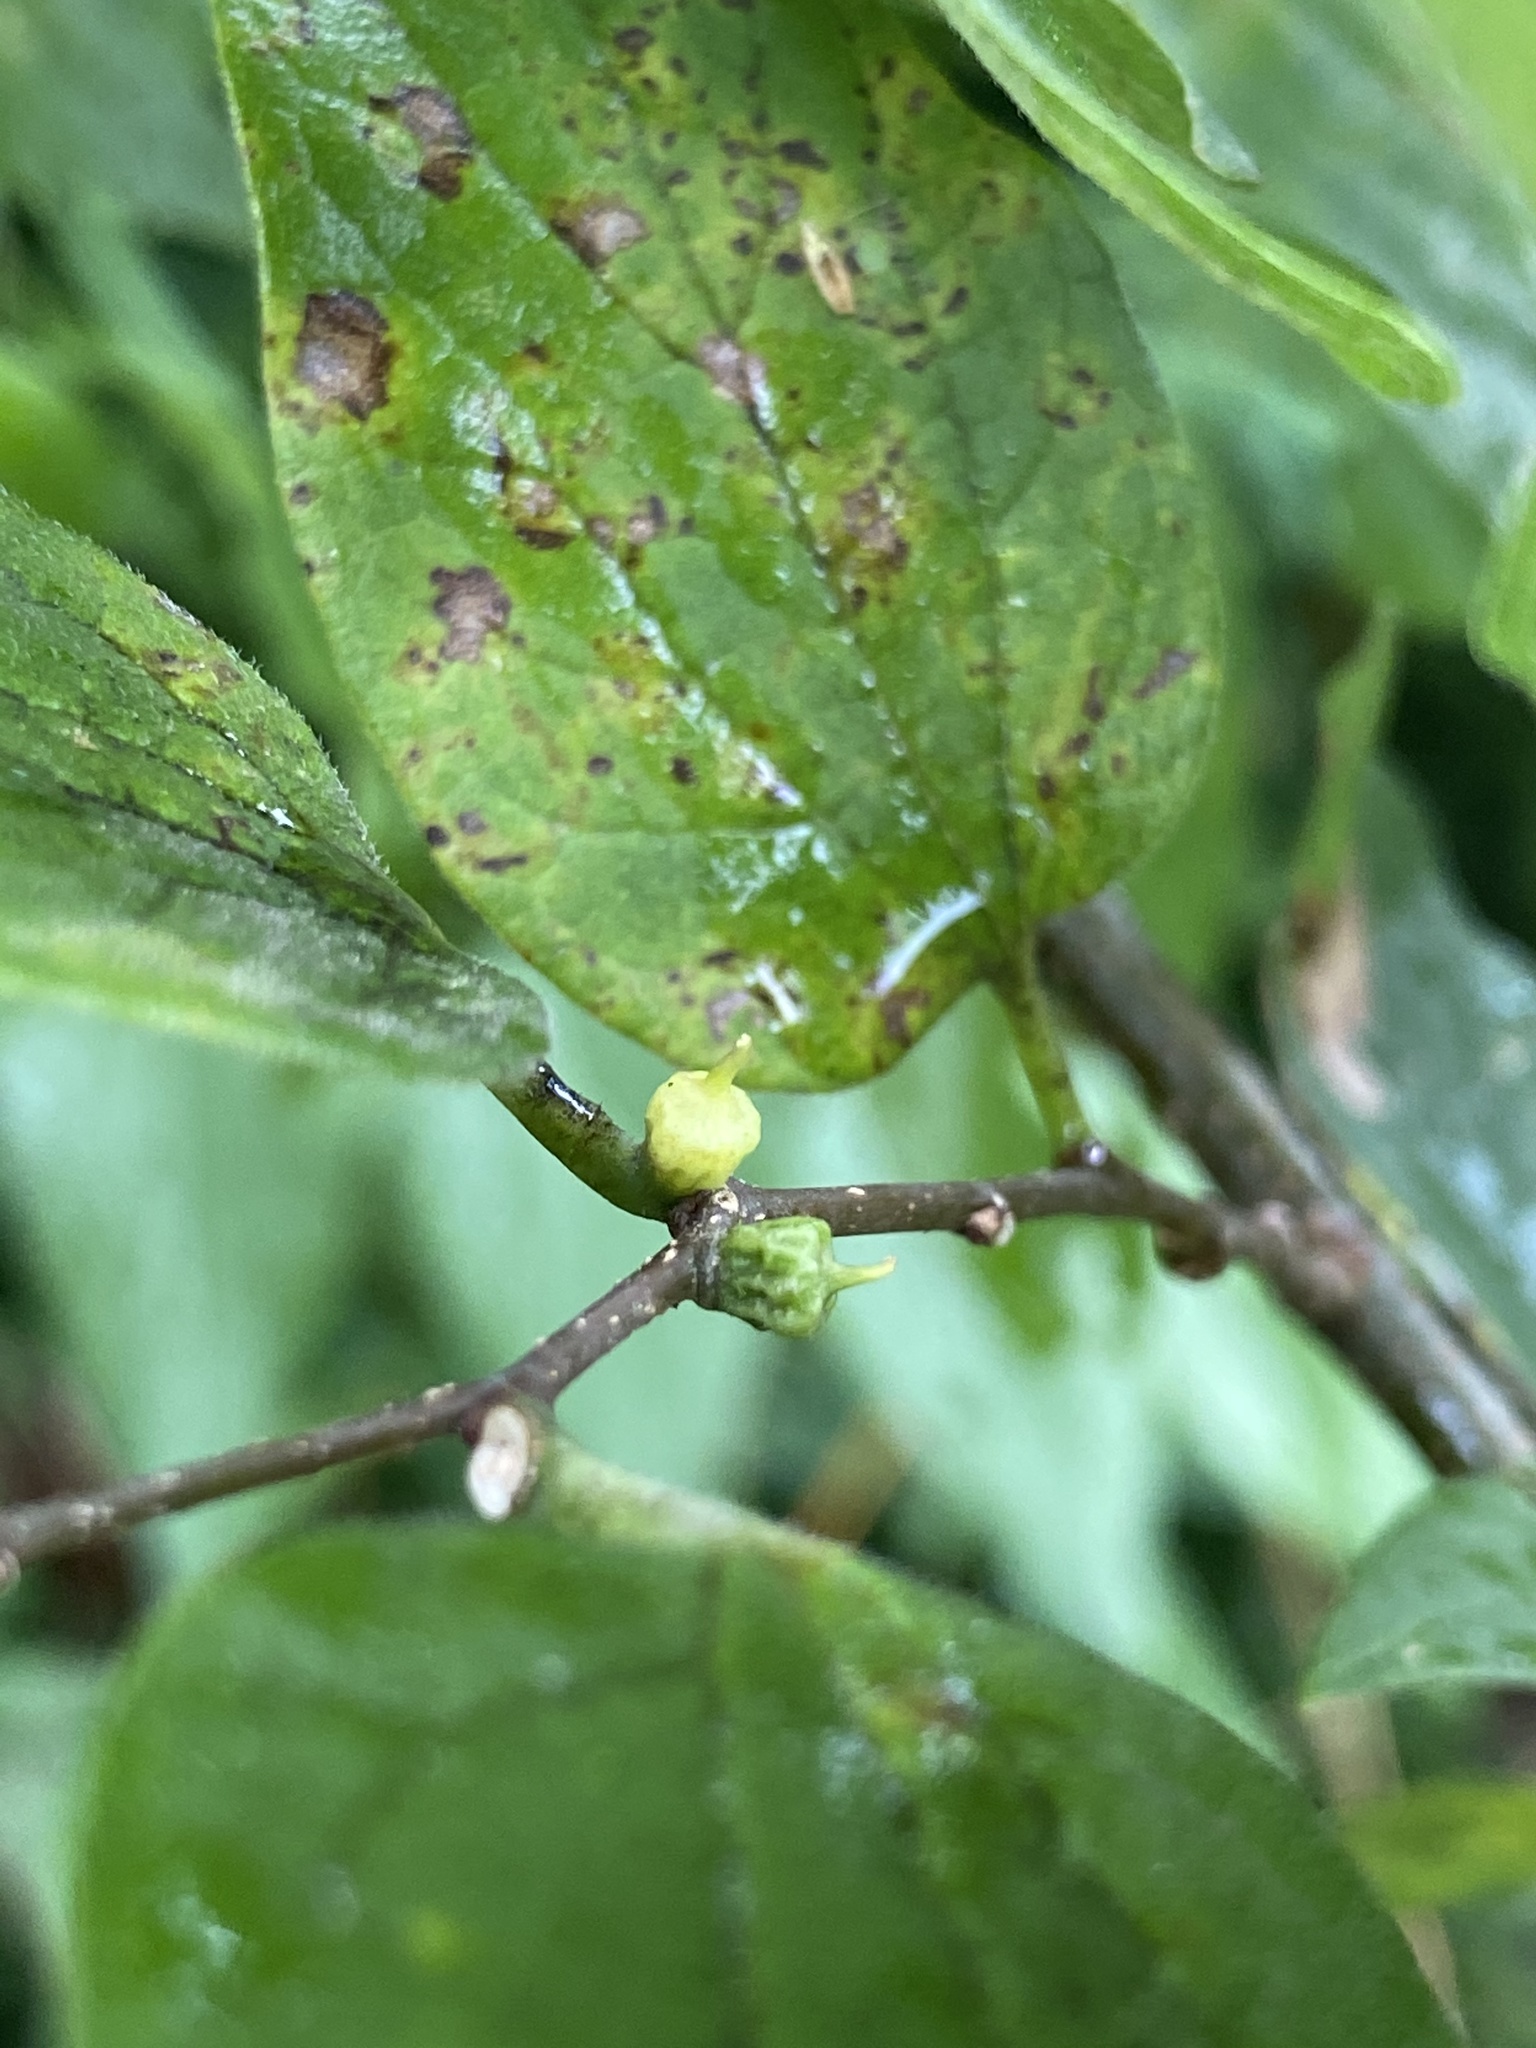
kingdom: Animalia
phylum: Arthropoda
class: Insecta
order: Diptera
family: Cecidomyiidae
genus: Celticecis
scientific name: Celticecis ramicola
